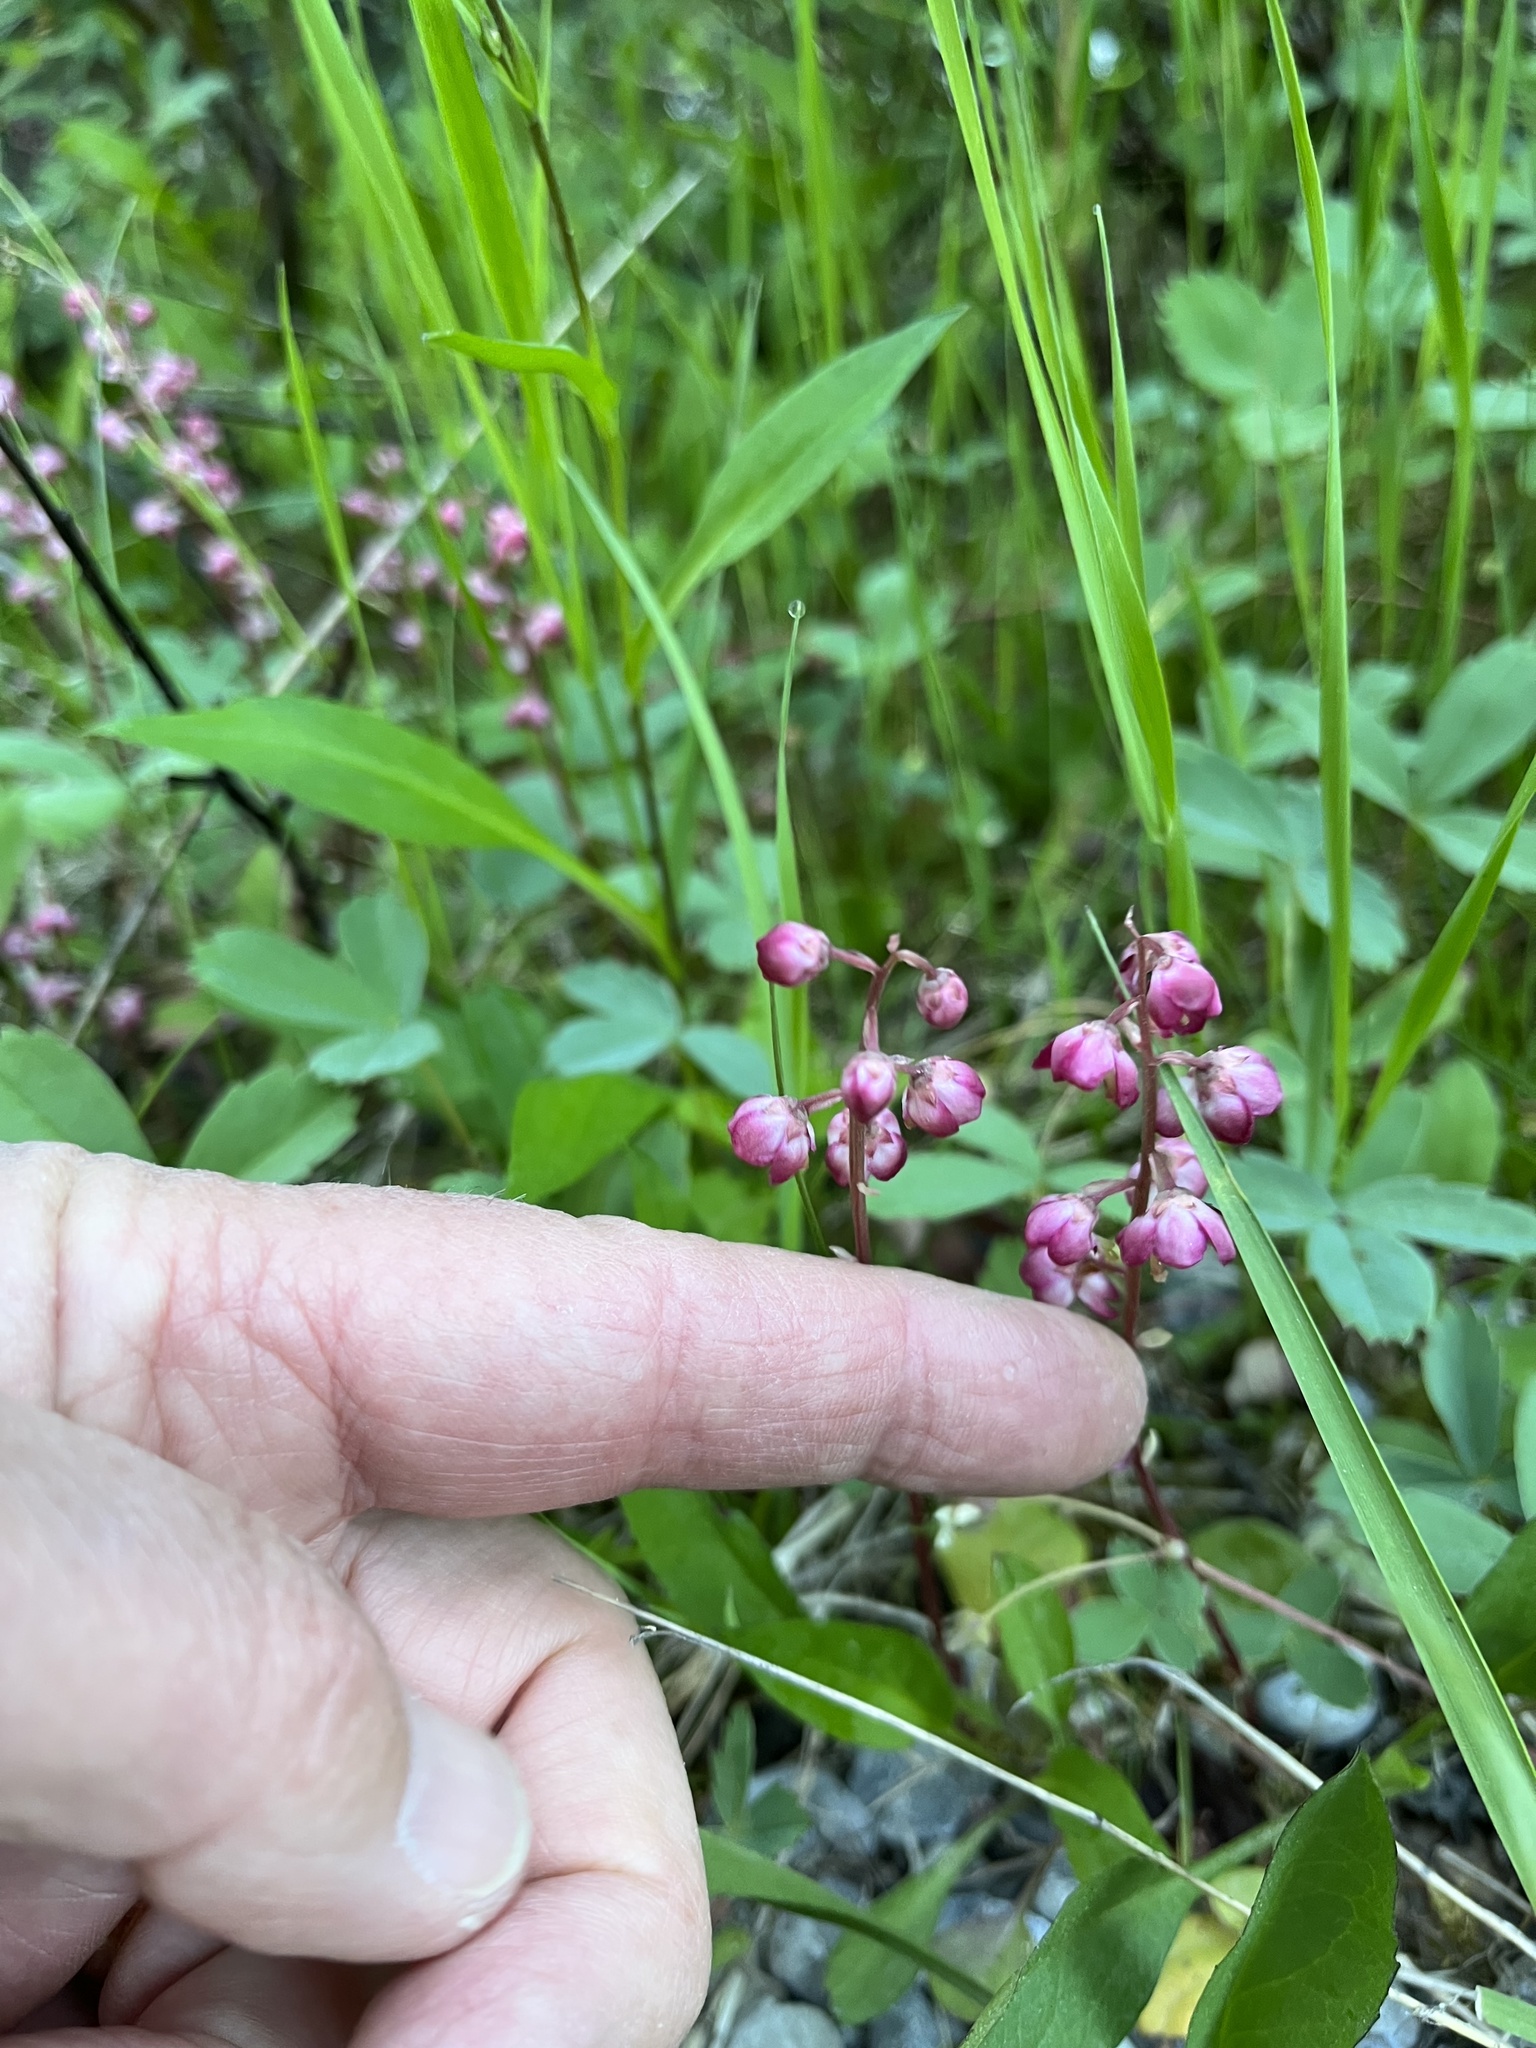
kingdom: Plantae
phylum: Tracheophyta
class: Magnoliopsida
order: Ericales
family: Ericaceae
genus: Pyrola
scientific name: Pyrola asarifolia
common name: Bog wintergreen
